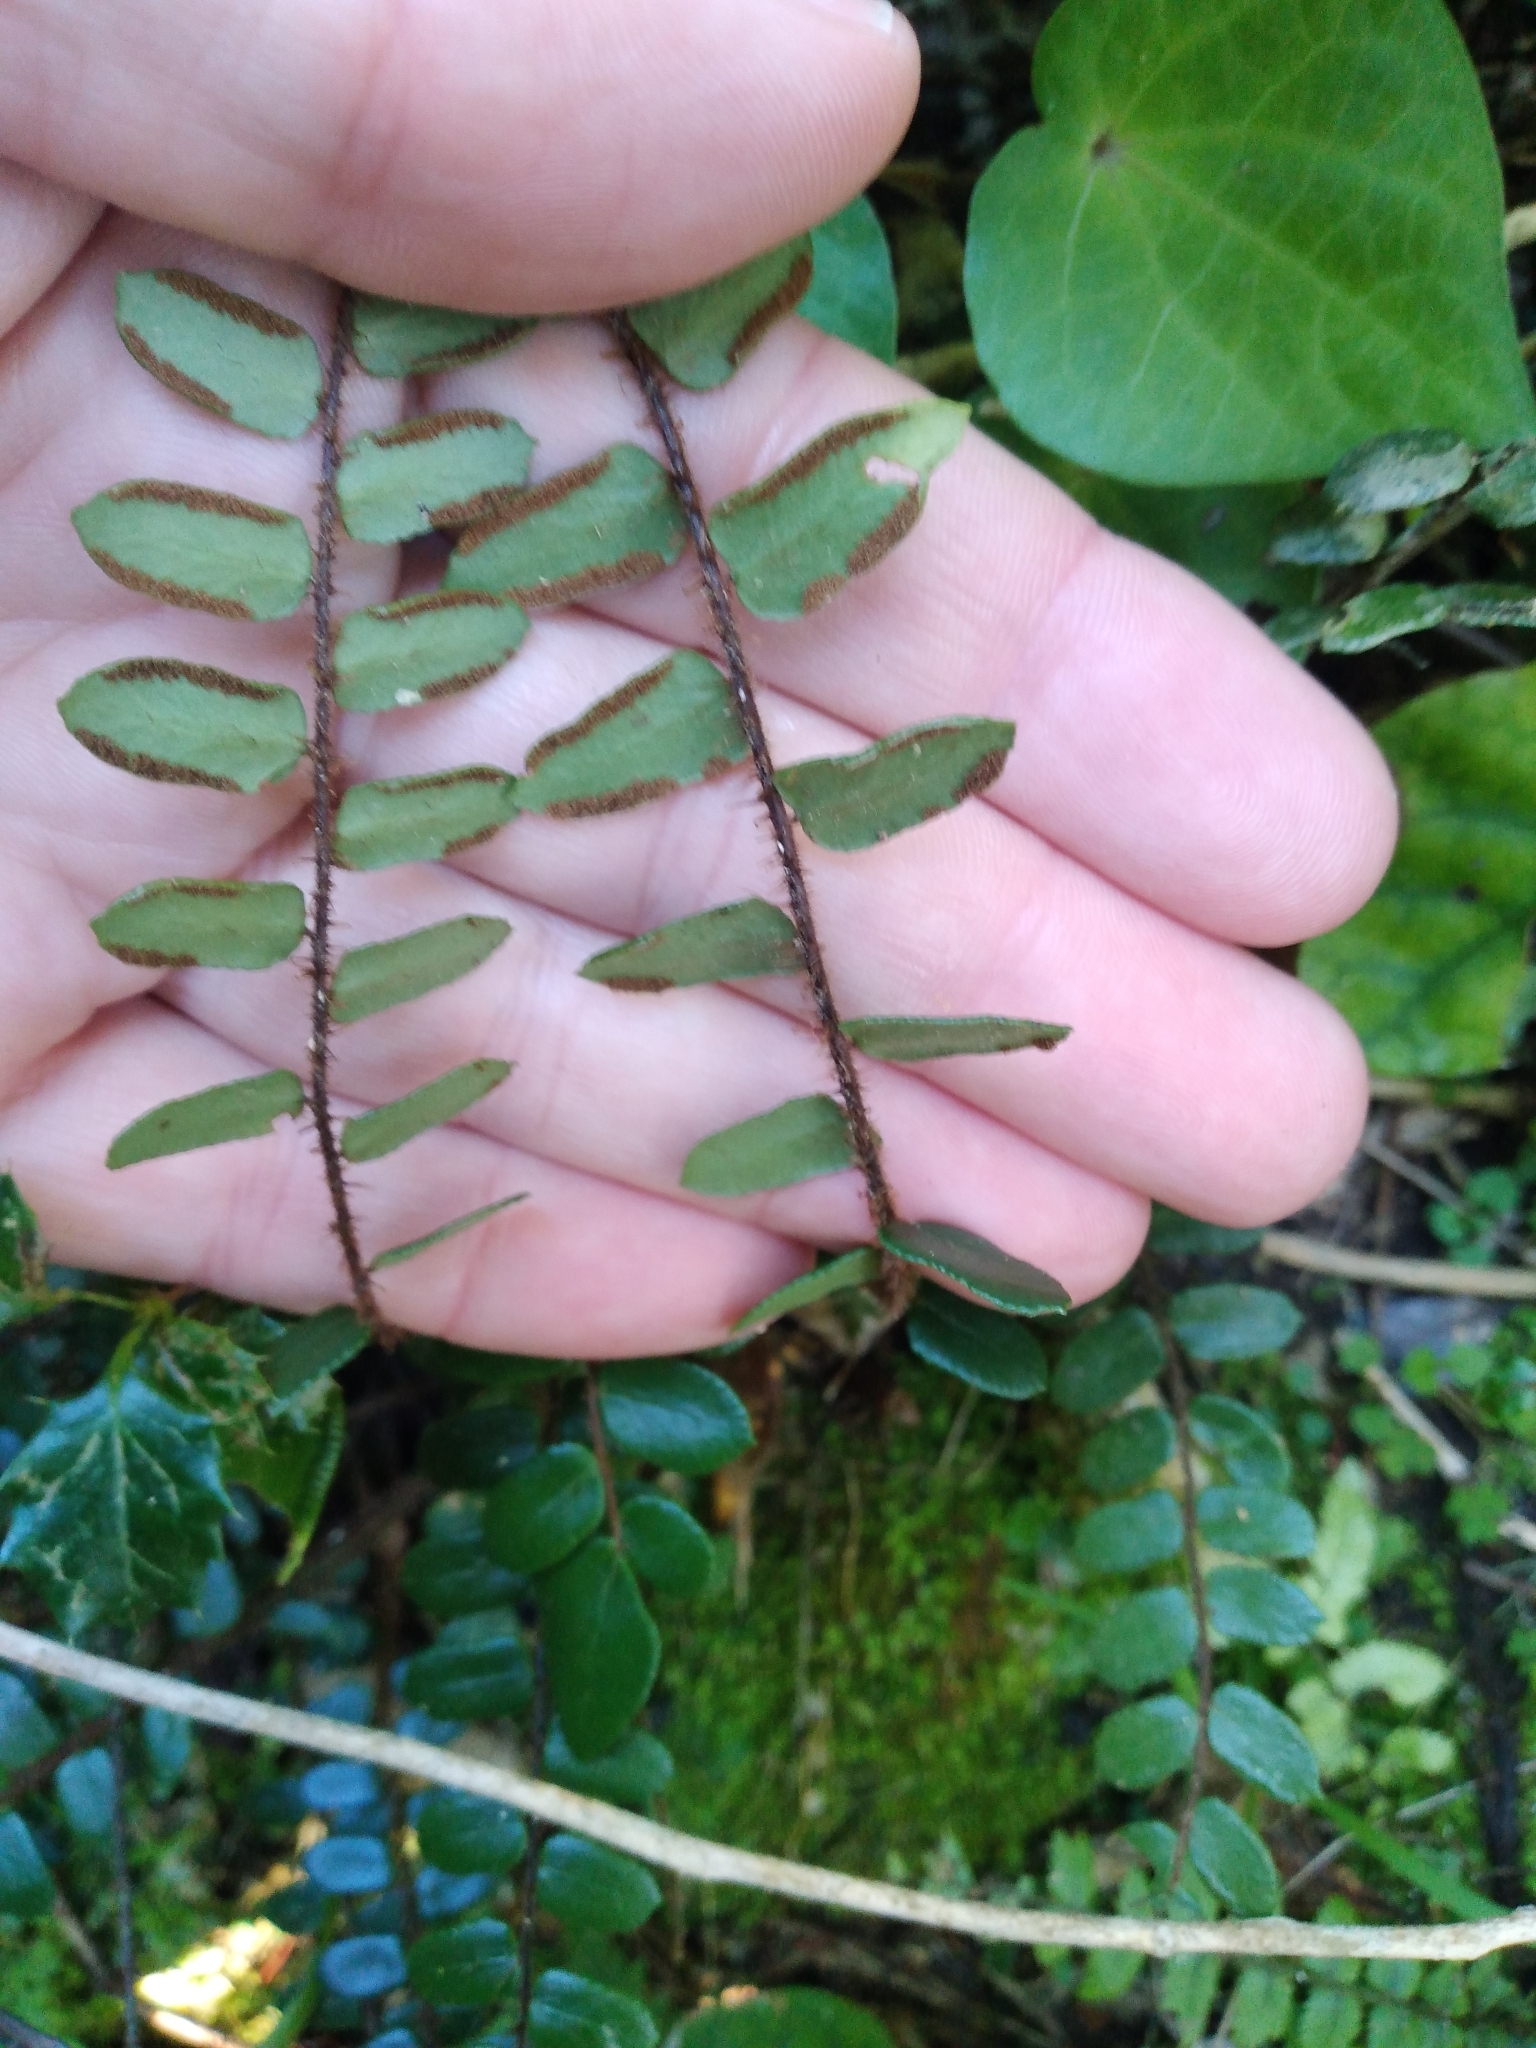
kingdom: Plantae
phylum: Tracheophyta
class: Polypodiopsida
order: Polypodiales
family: Pteridaceae
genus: Pellaea
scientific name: Pellaea rotundifolia
